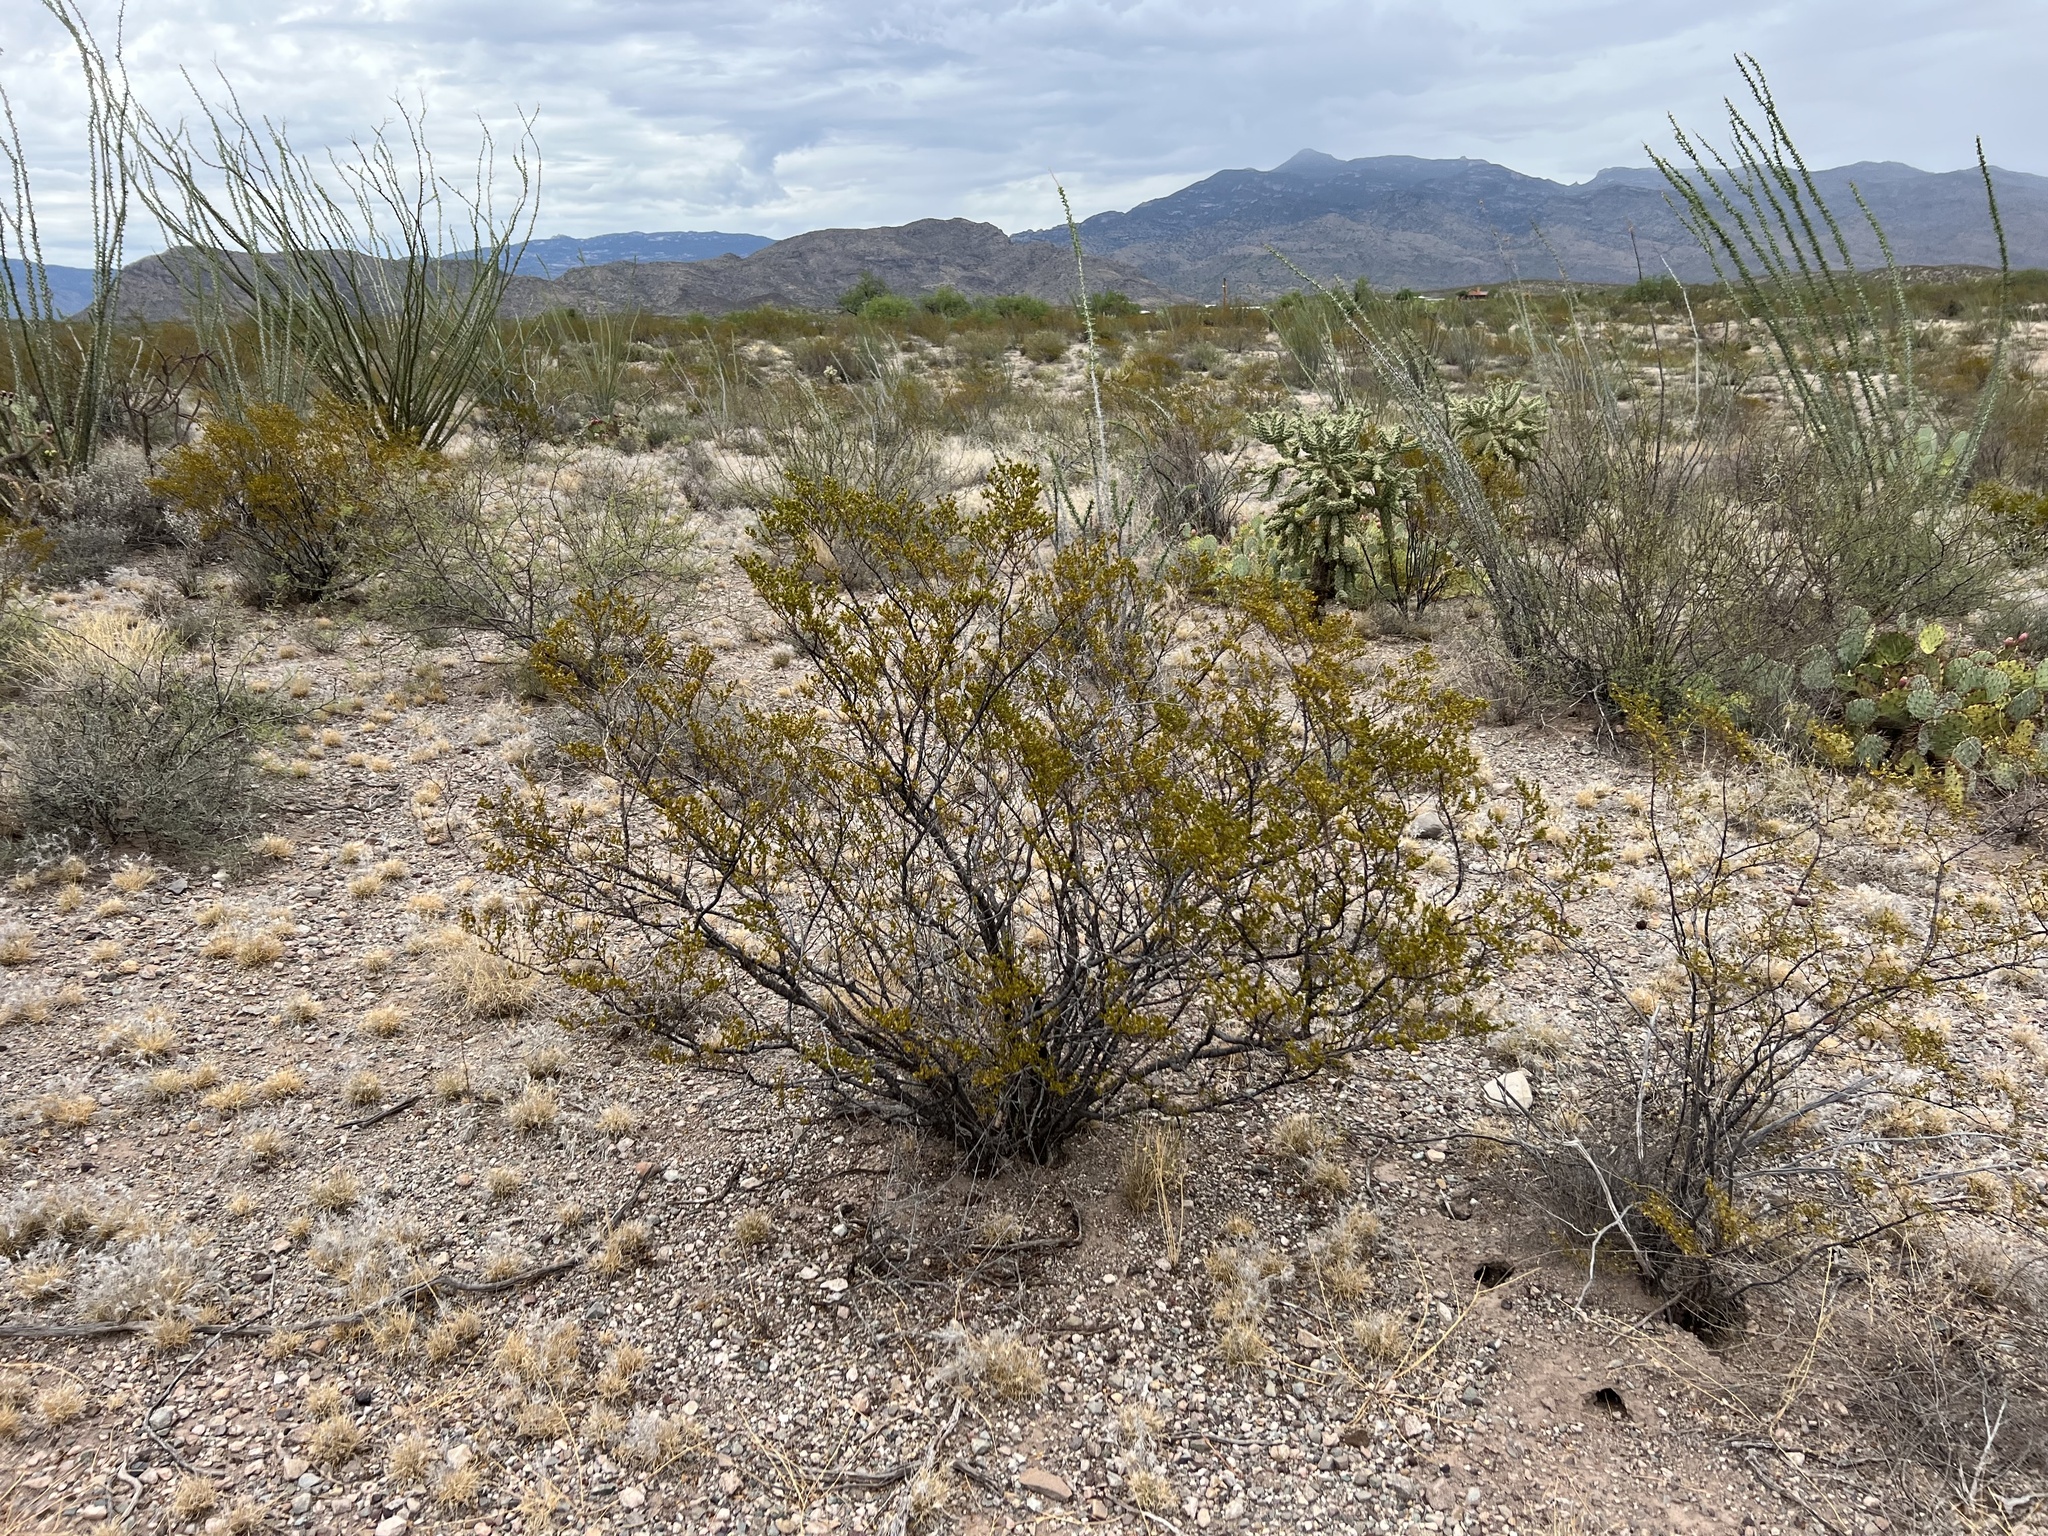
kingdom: Plantae
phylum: Tracheophyta
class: Magnoliopsida
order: Zygophyllales
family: Zygophyllaceae
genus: Larrea
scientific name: Larrea tridentata
